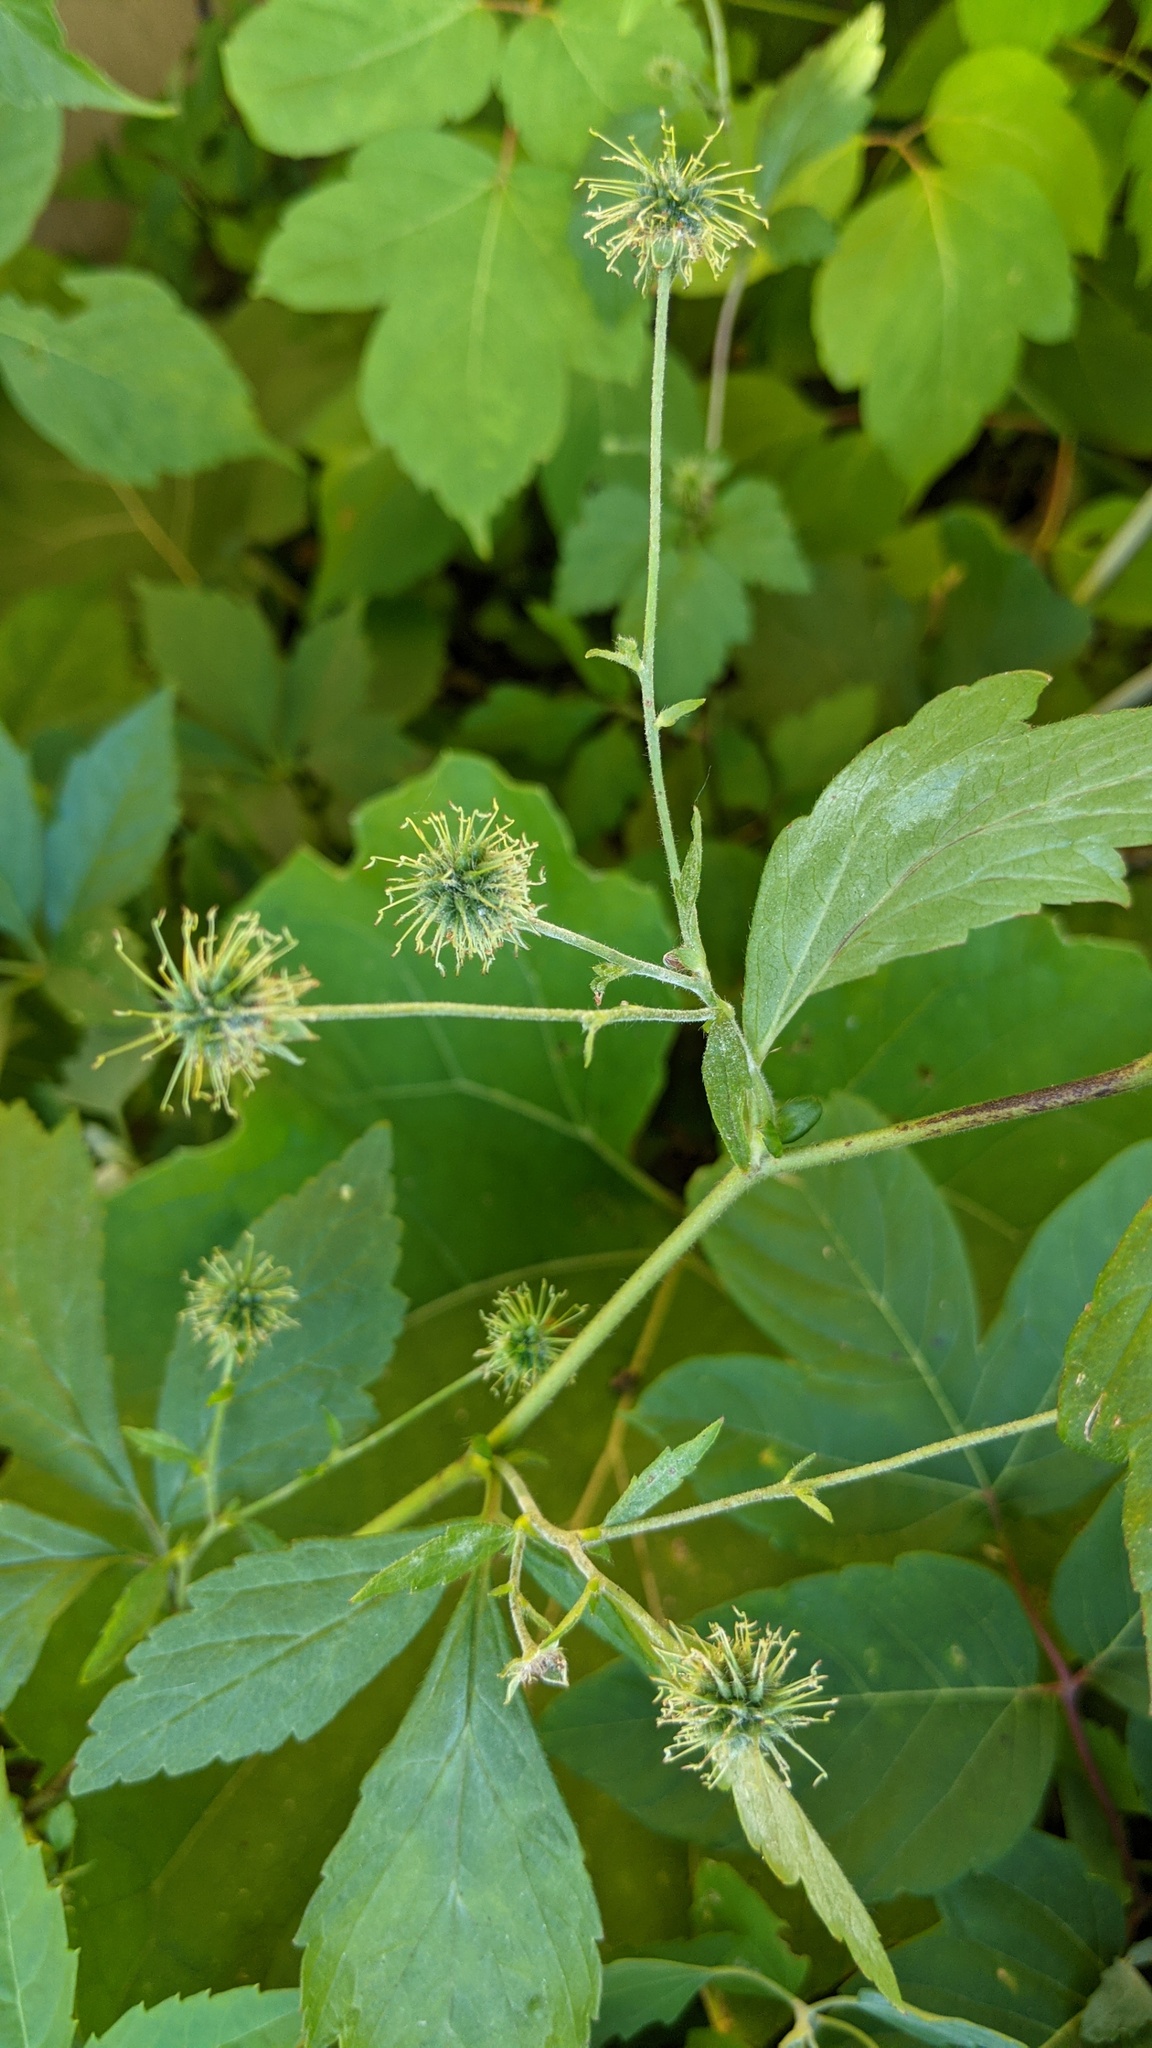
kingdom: Plantae
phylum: Tracheophyta
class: Magnoliopsida
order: Rosales
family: Rosaceae
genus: Geum
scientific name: Geum canadense
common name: White avens
